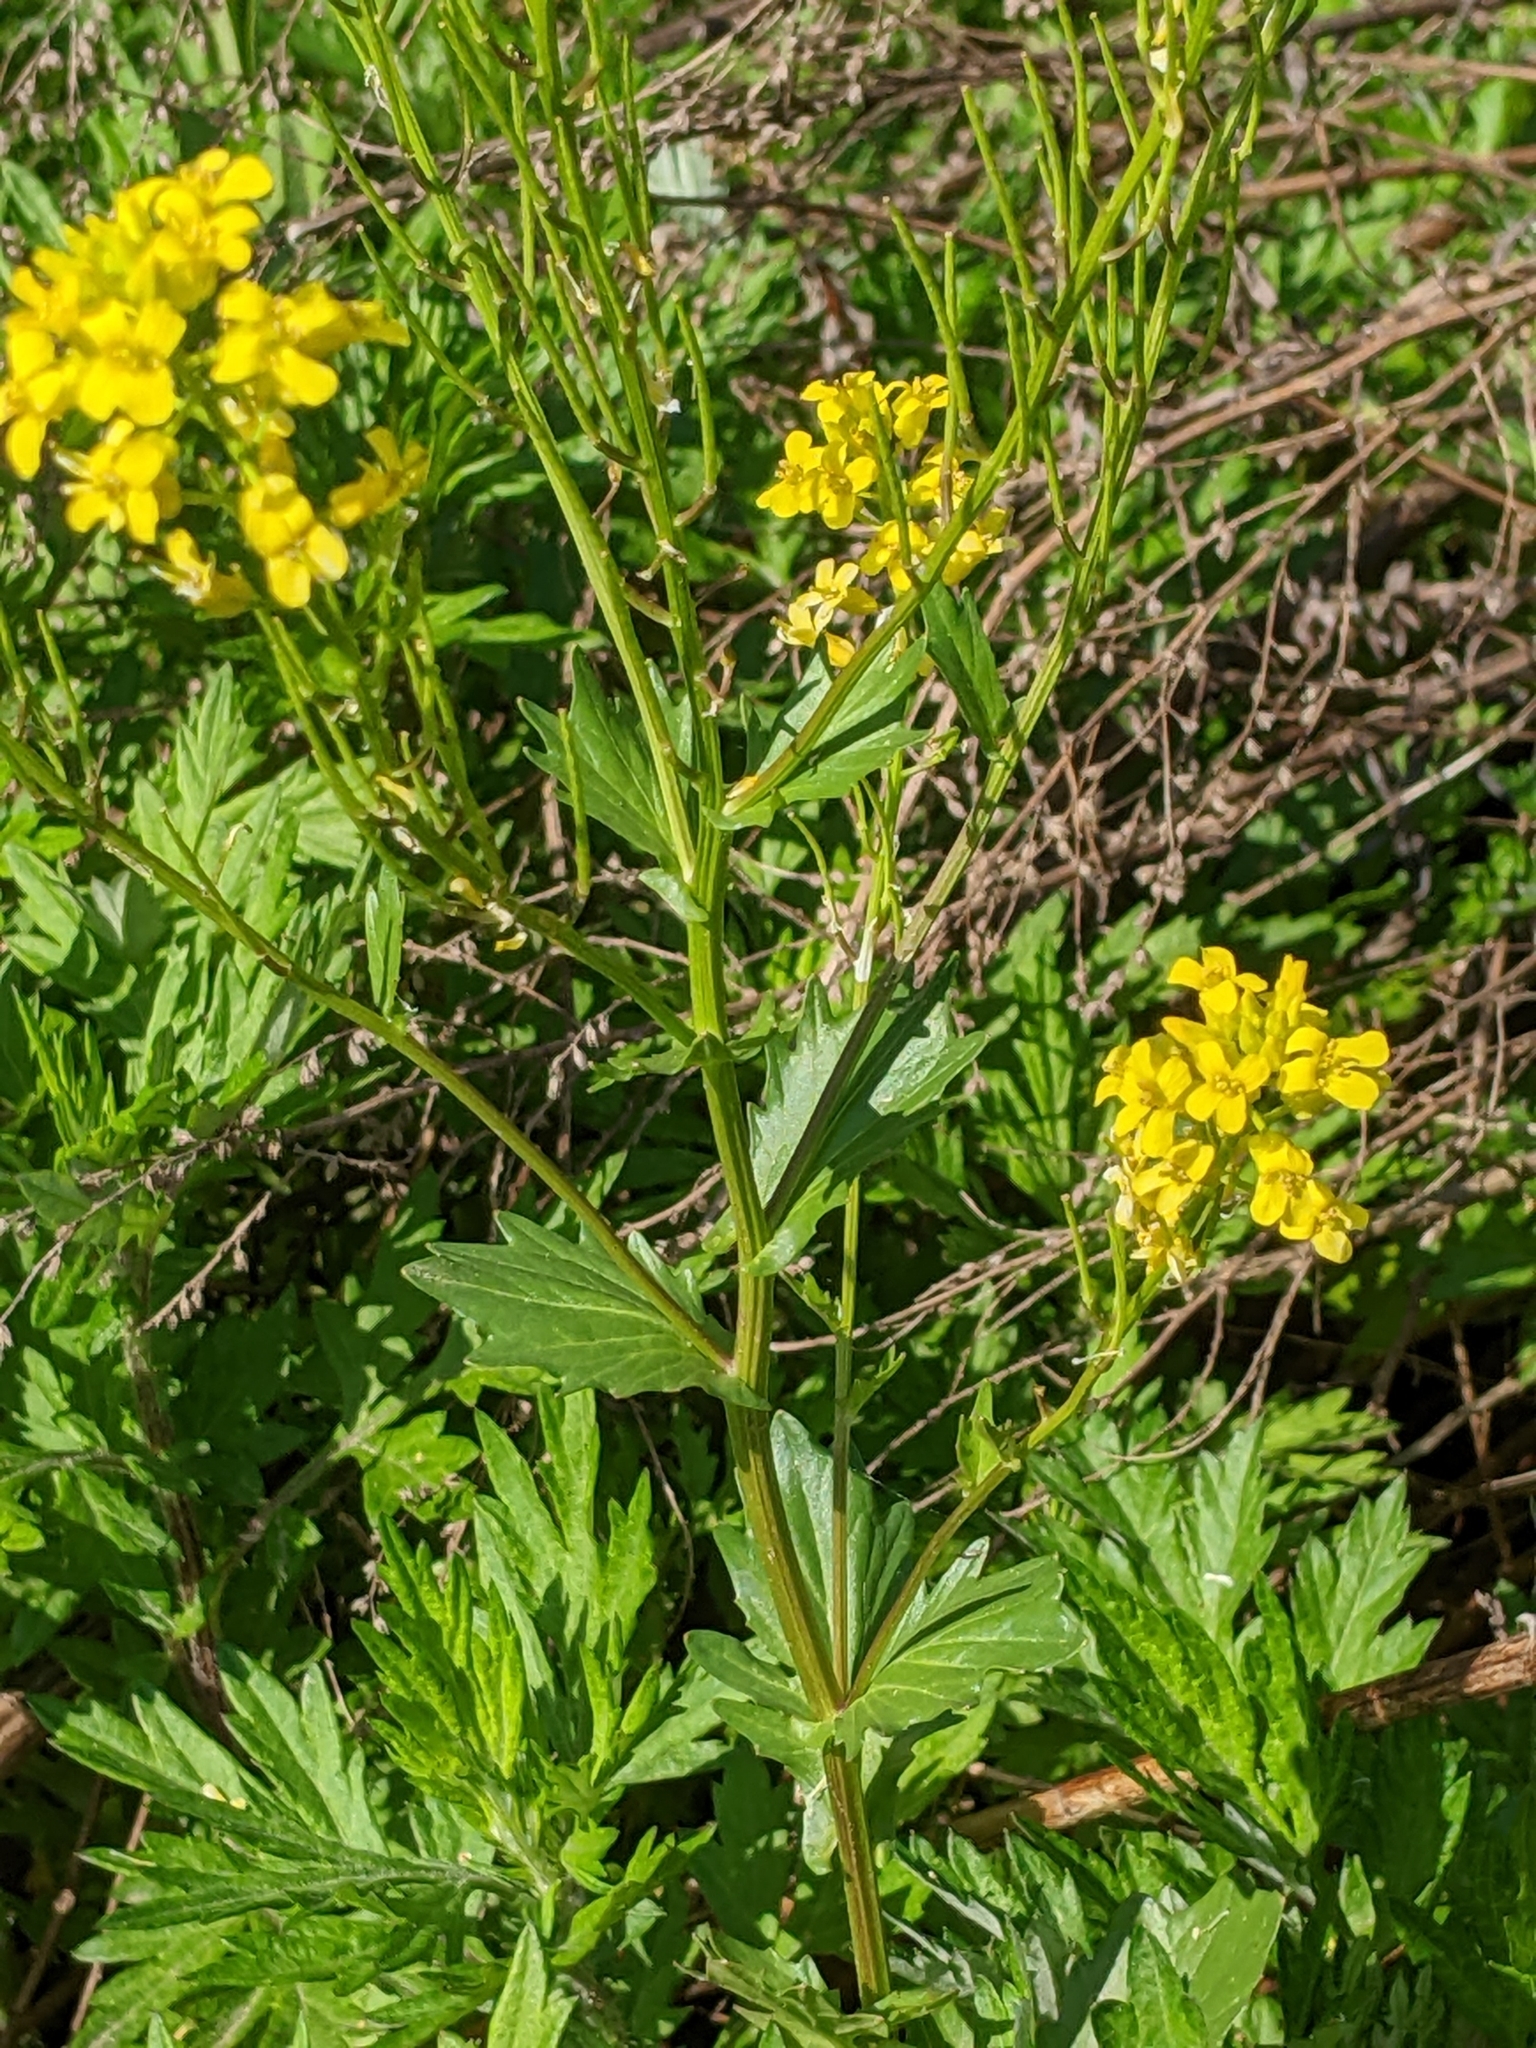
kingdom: Plantae
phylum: Tracheophyta
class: Magnoliopsida
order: Brassicales
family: Brassicaceae
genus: Barbarea
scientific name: Barbarea vulgaris
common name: Cressy-greens
